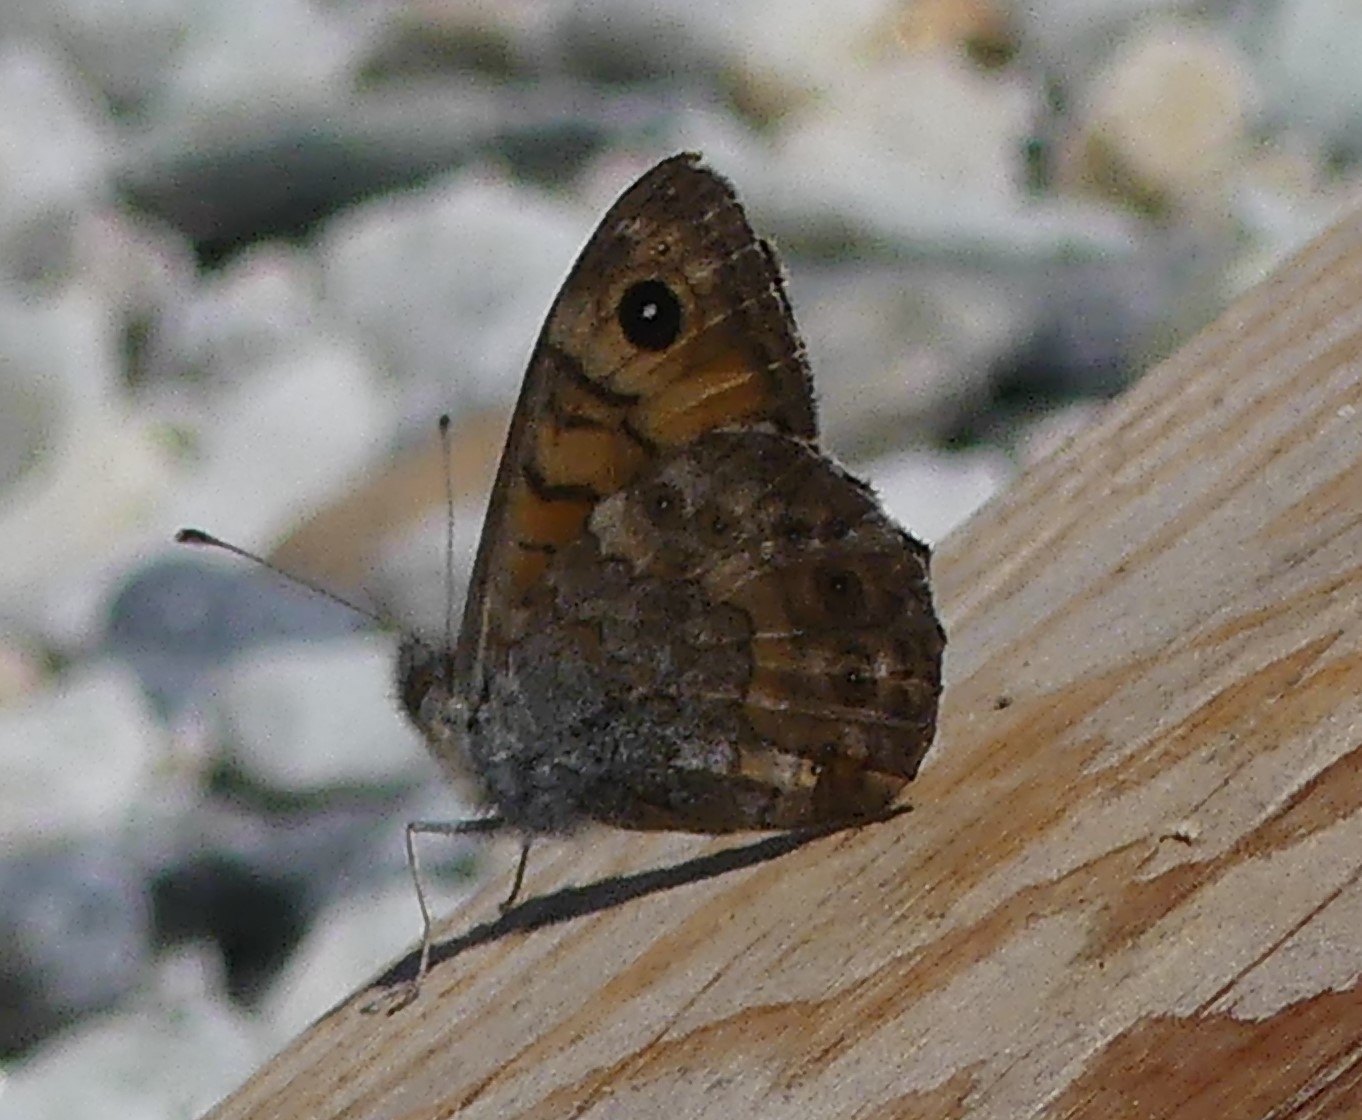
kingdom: Animalia
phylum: Arthropoda
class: Insecta
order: Lepidoptera
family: Nymphalidae
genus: Pararge
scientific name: Pararge Lasiommata megera
